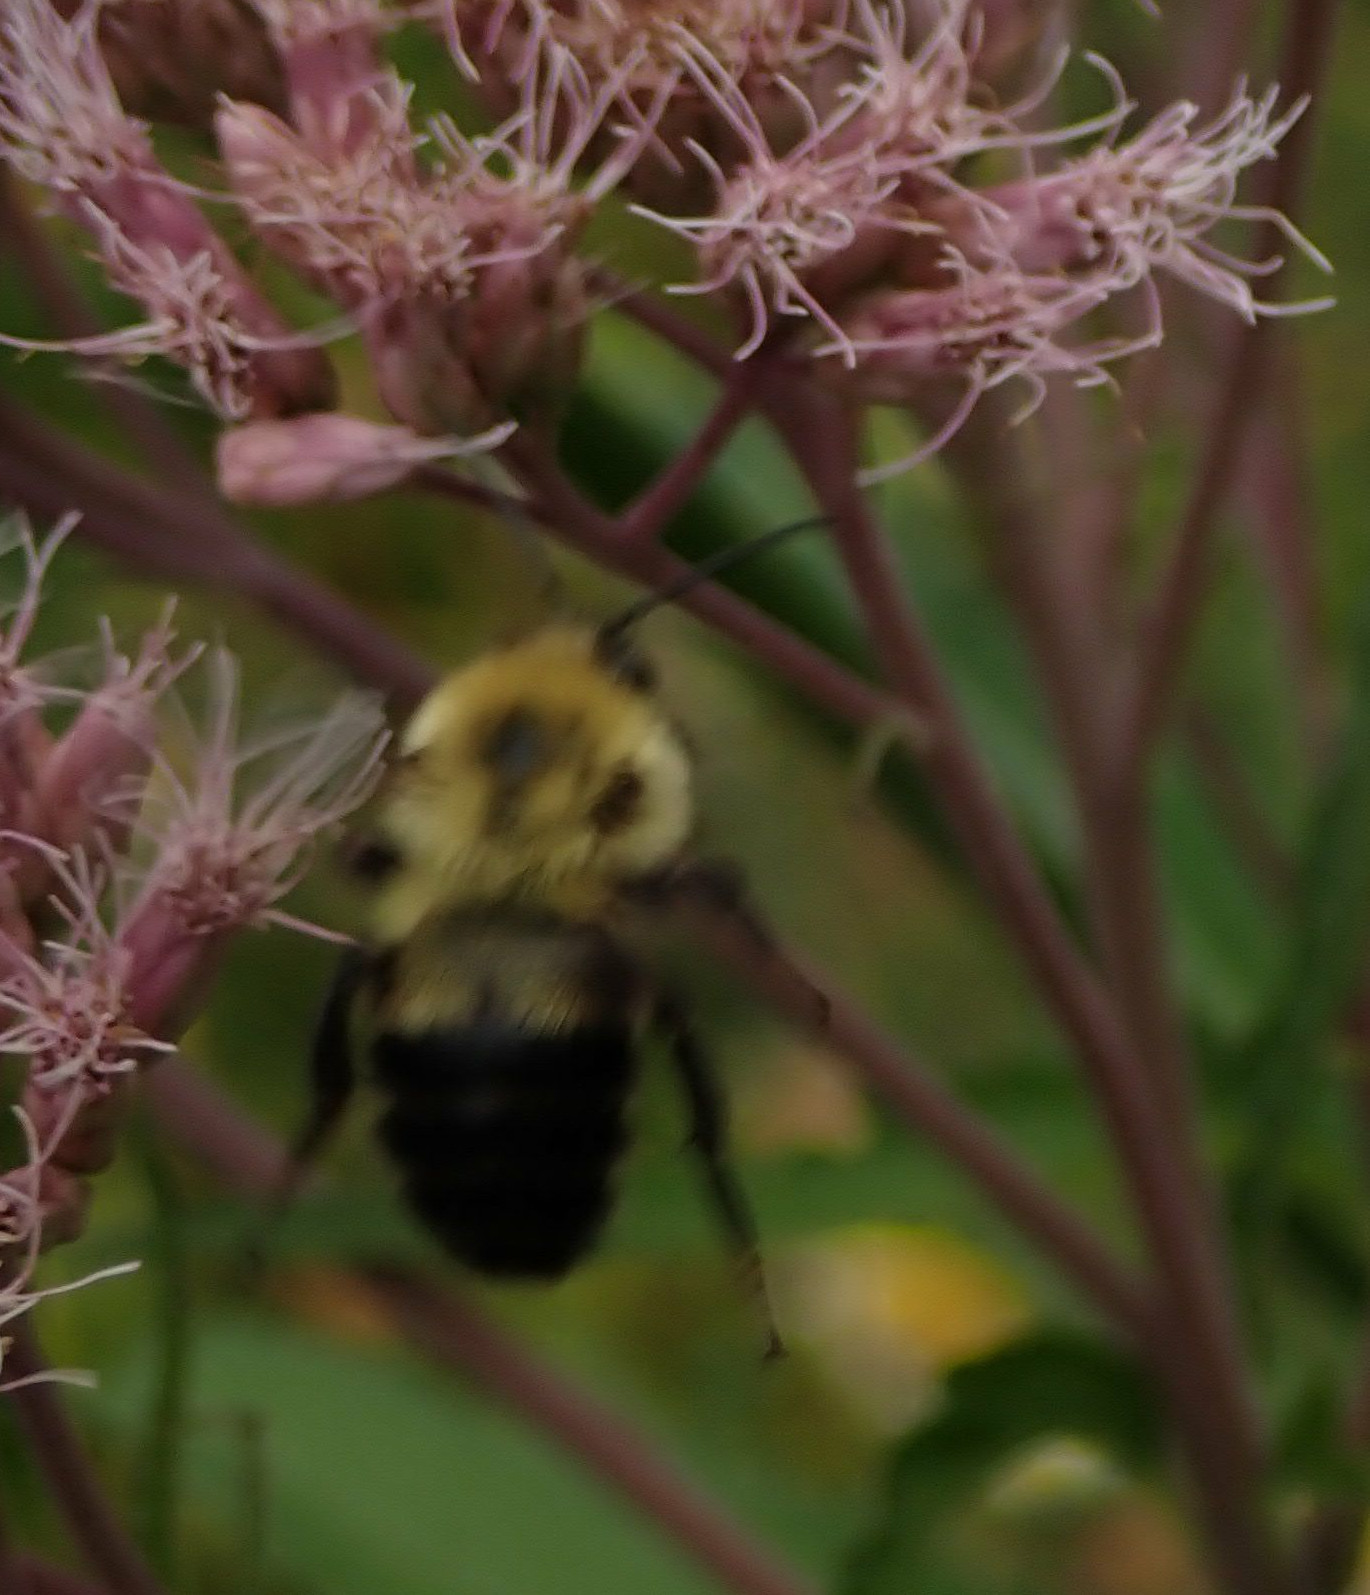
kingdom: Animalia
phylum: Arthropoda
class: Insecta
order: Hymenoptera
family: Apidae
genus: Bombus
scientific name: Bombus bimaculatus
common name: Two-spotted bumble bee
